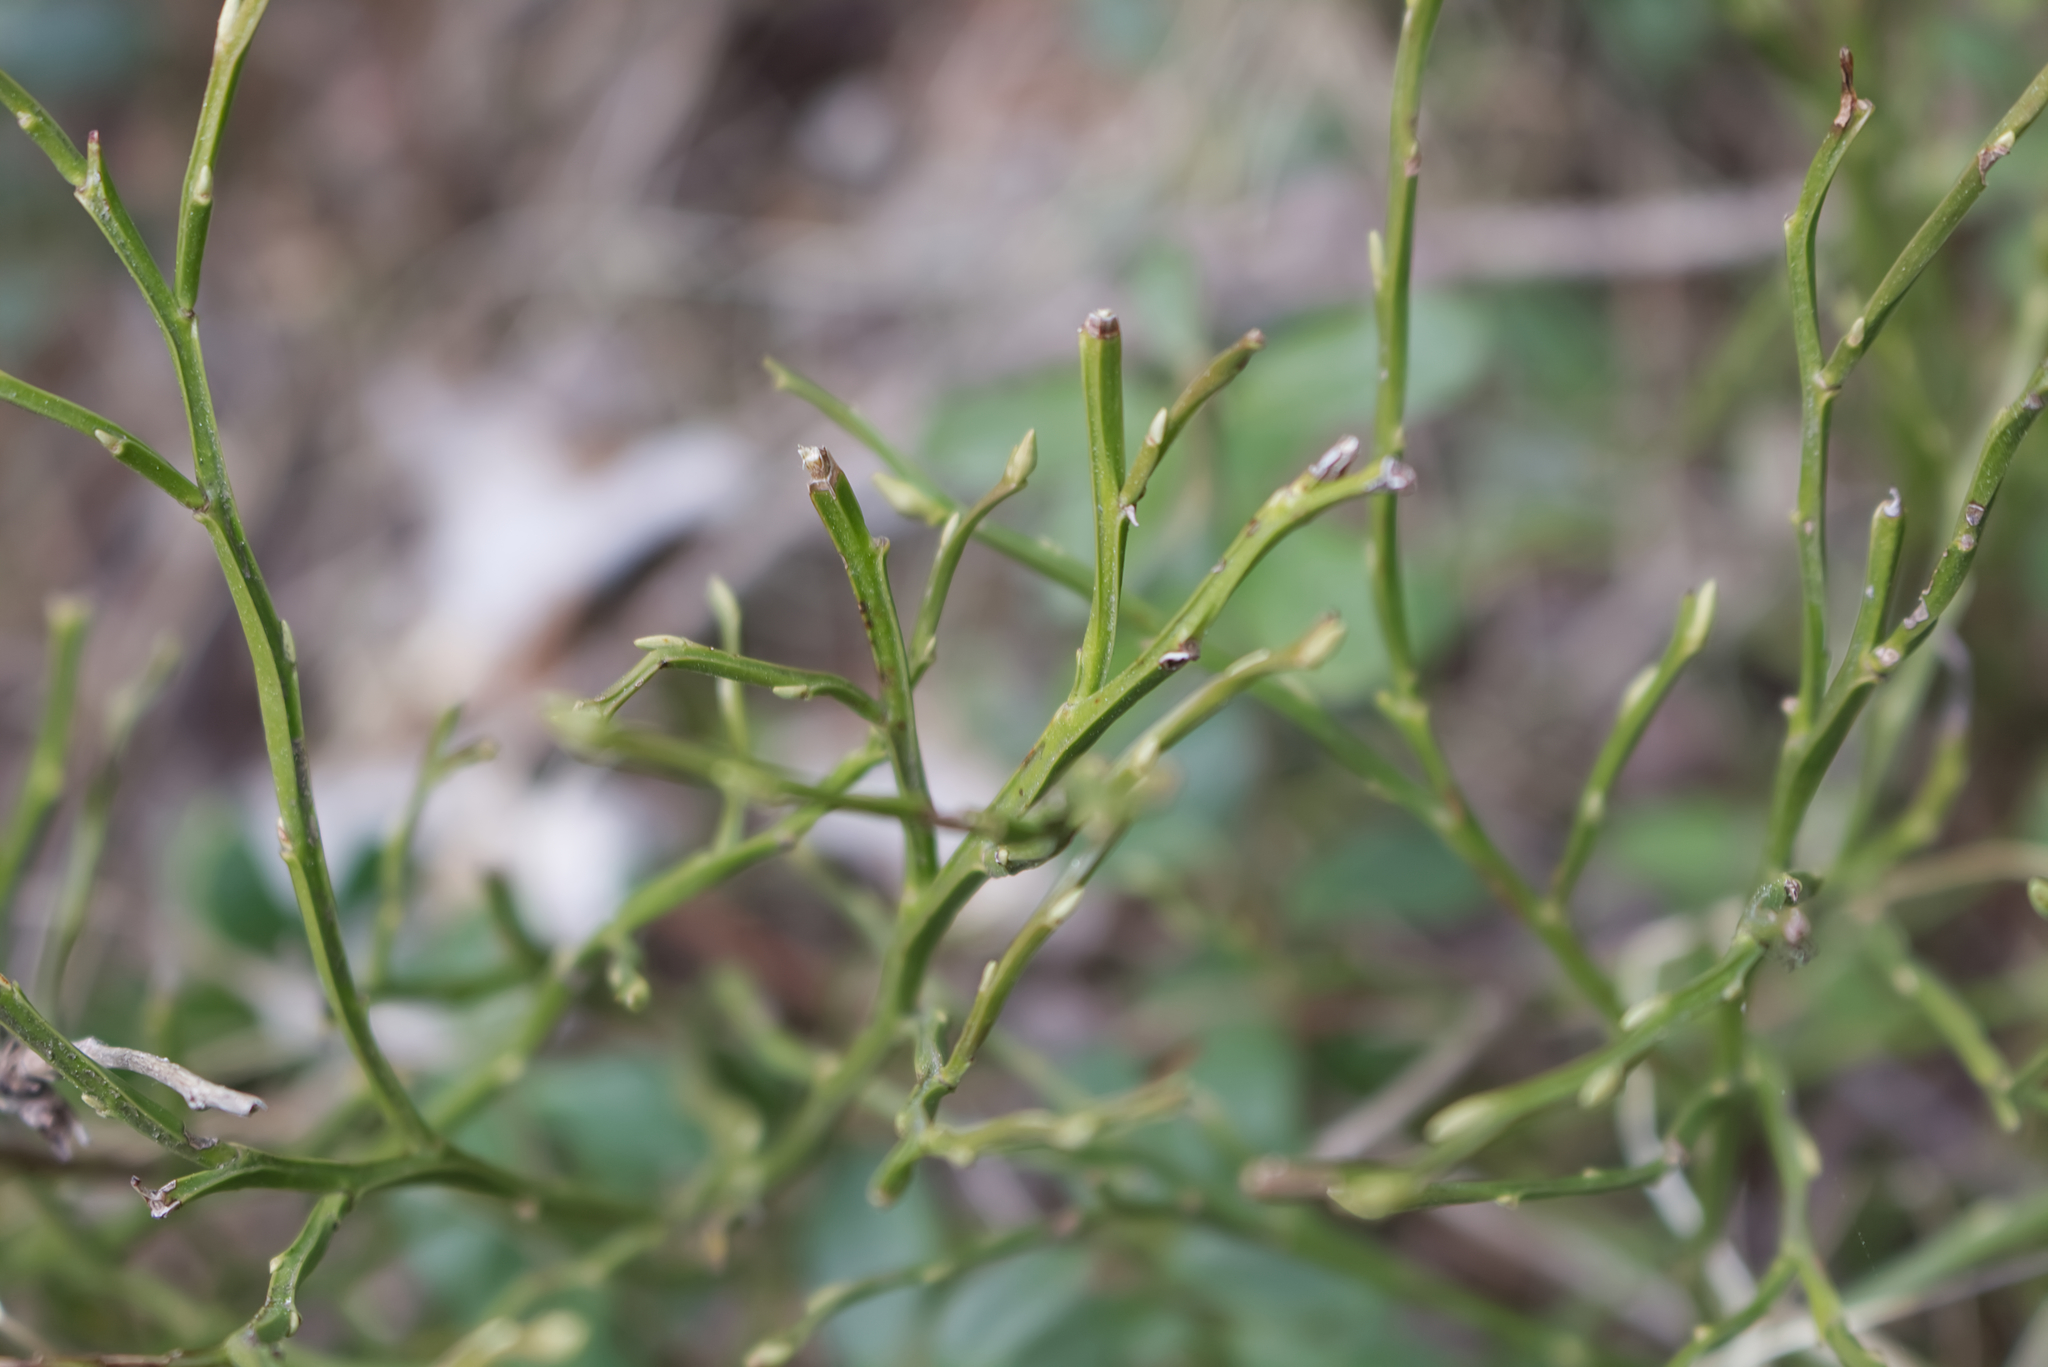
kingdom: Plantae
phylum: Tracheophyta
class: Magnoliopsida
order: Ericales
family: Ericaceae
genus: Vaccinium
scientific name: Vaccinium myrtillus
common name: Bilberry
